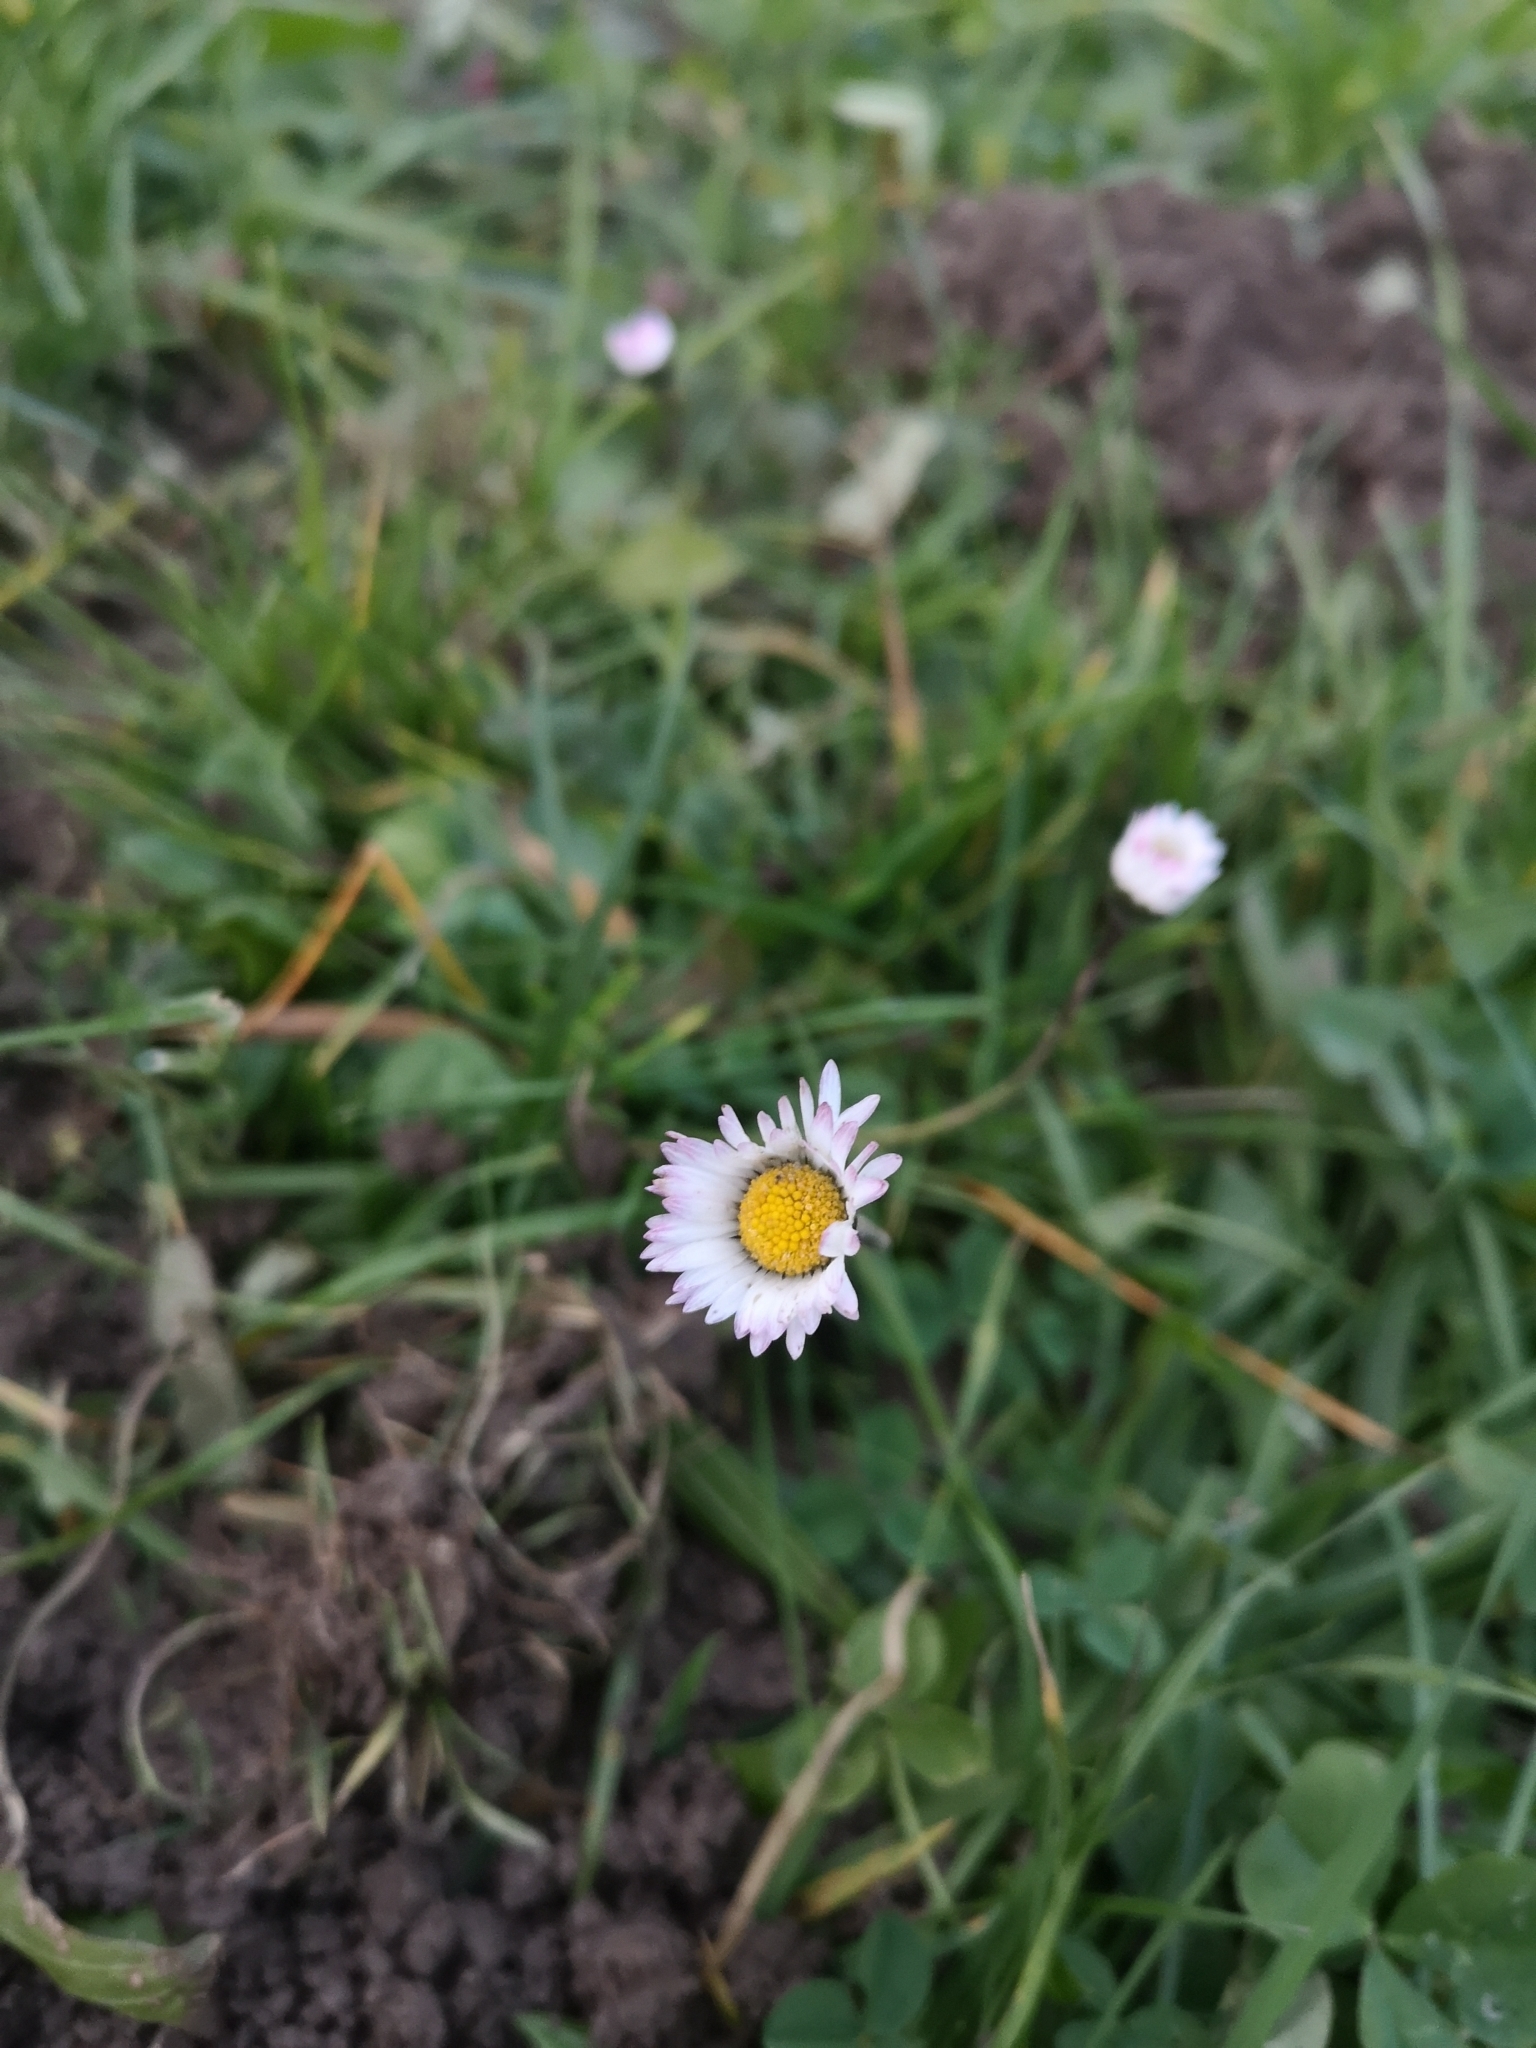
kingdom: Plantae
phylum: Tracheophyta
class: Magnoliopsida
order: Asterales
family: Asteraceae
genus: Bellis
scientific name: Bellis perennis
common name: Lawndaisy
